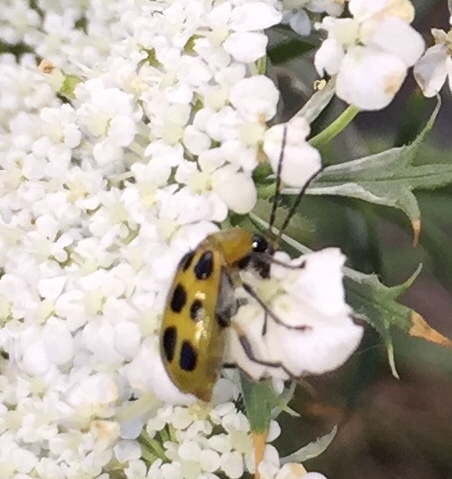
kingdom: Animalia
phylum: Arthropoda
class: Insecta
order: Coleoptera
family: Chrysomelidae
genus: Diabrotica
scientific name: Diabrotica undecimpunctata
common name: Spotted cucumber beetle
